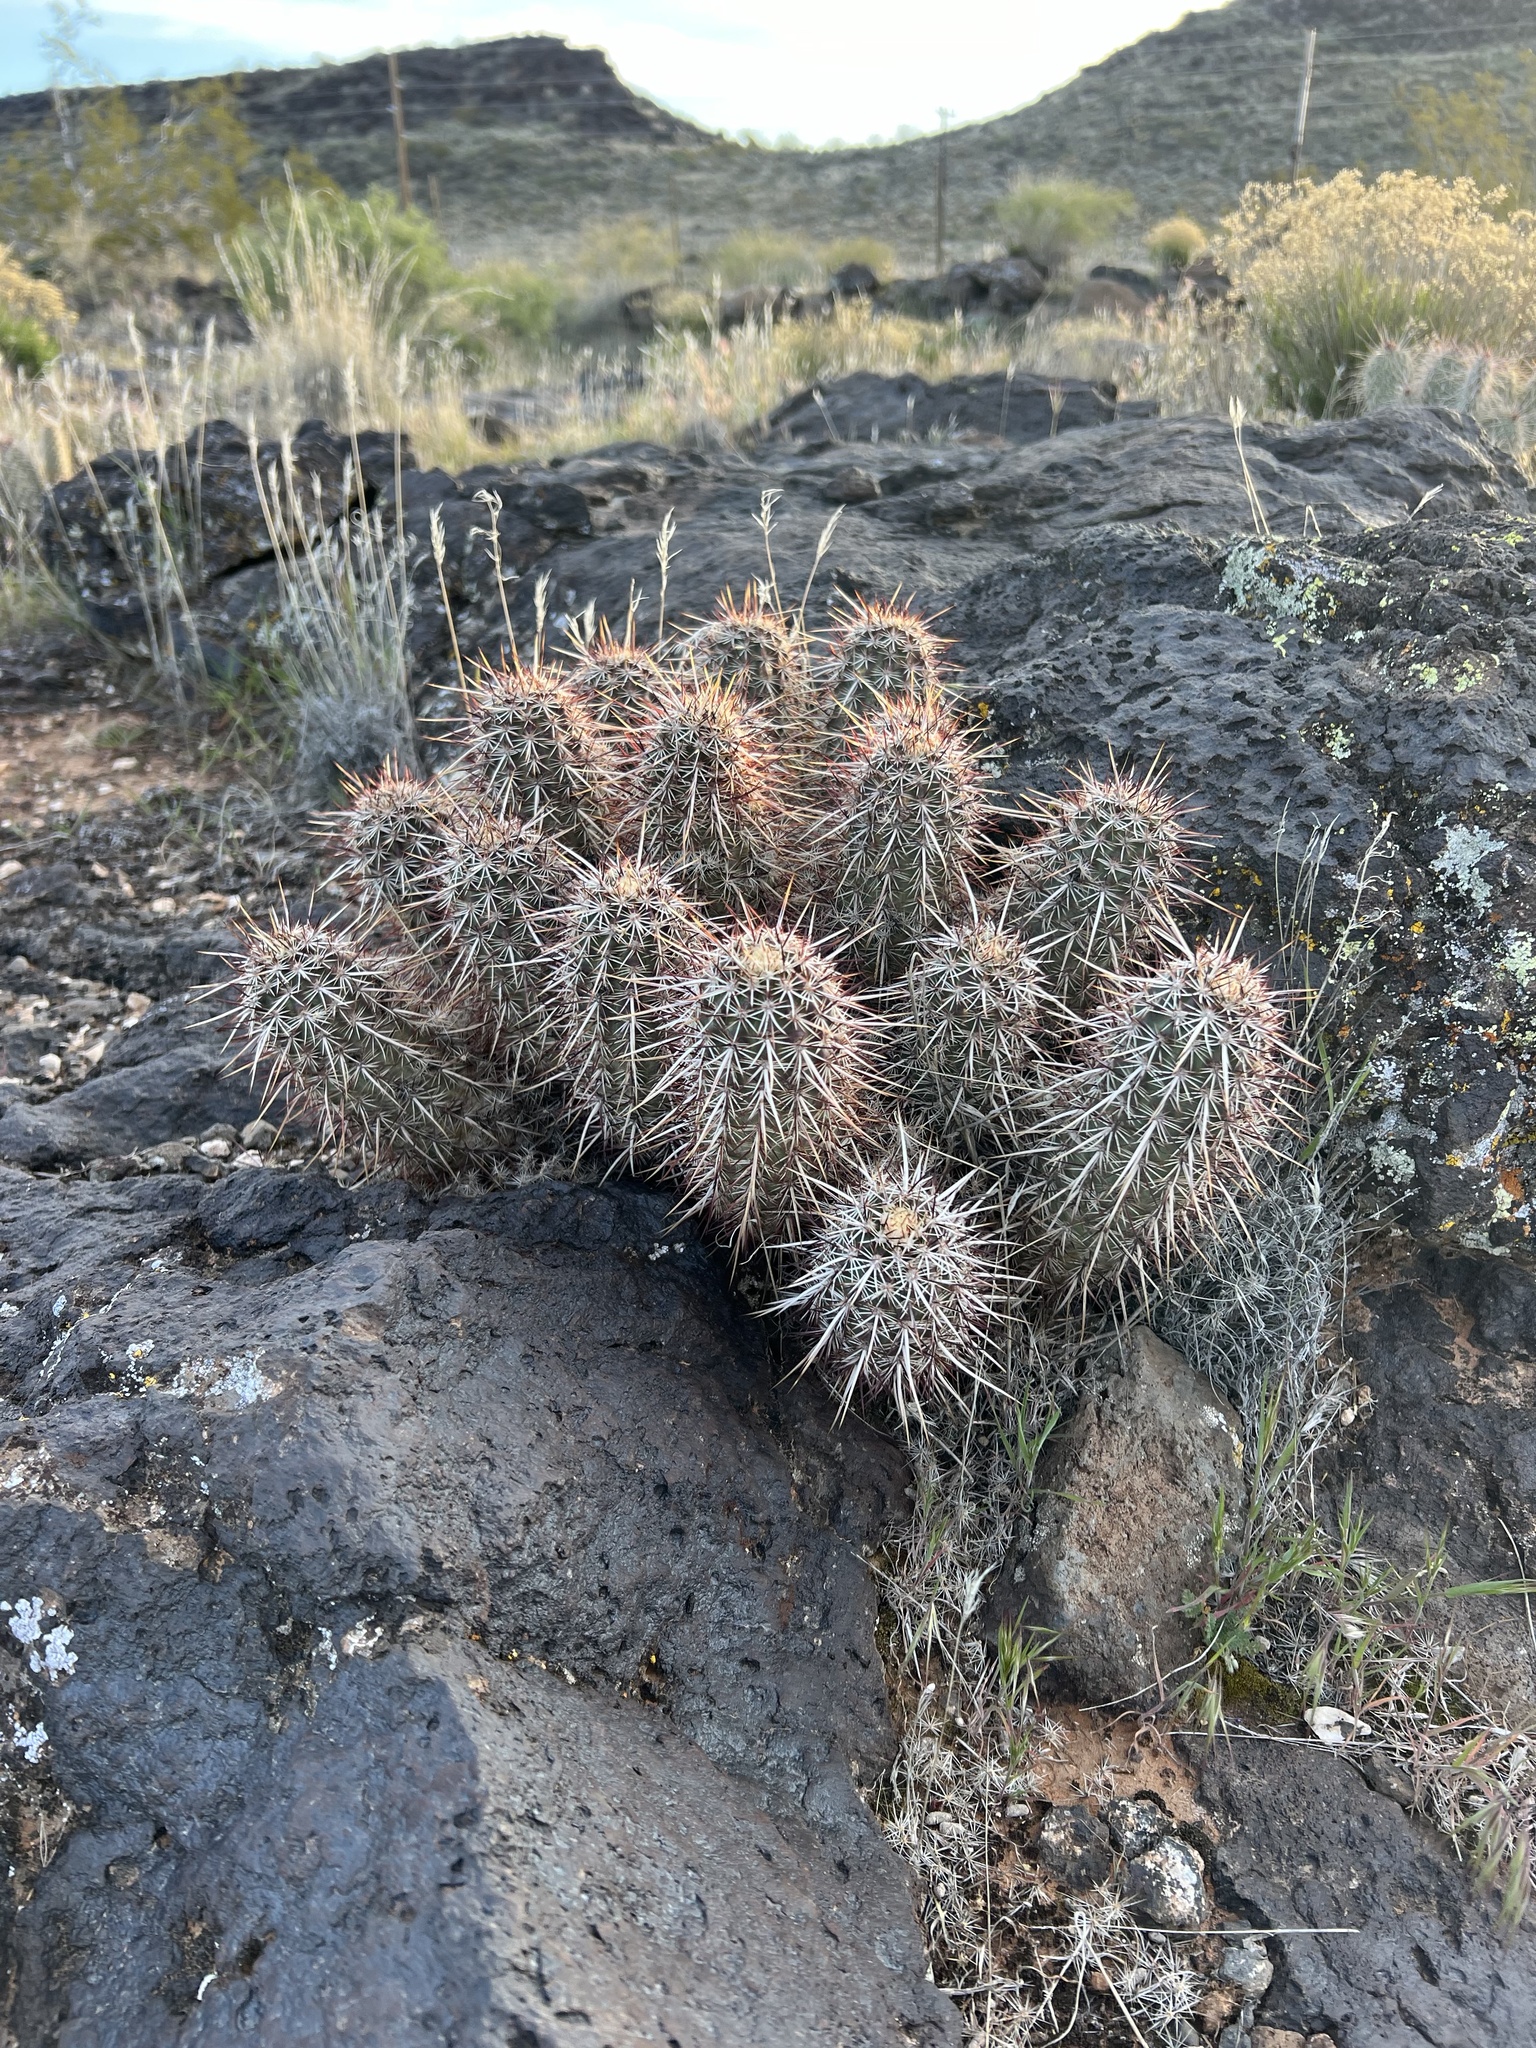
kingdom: Plantae
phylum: Tracheophyta
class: Magnoliopsida
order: Caryophyllales
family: Cactaceae
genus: Echinocereus
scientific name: Echinocereus relictus
